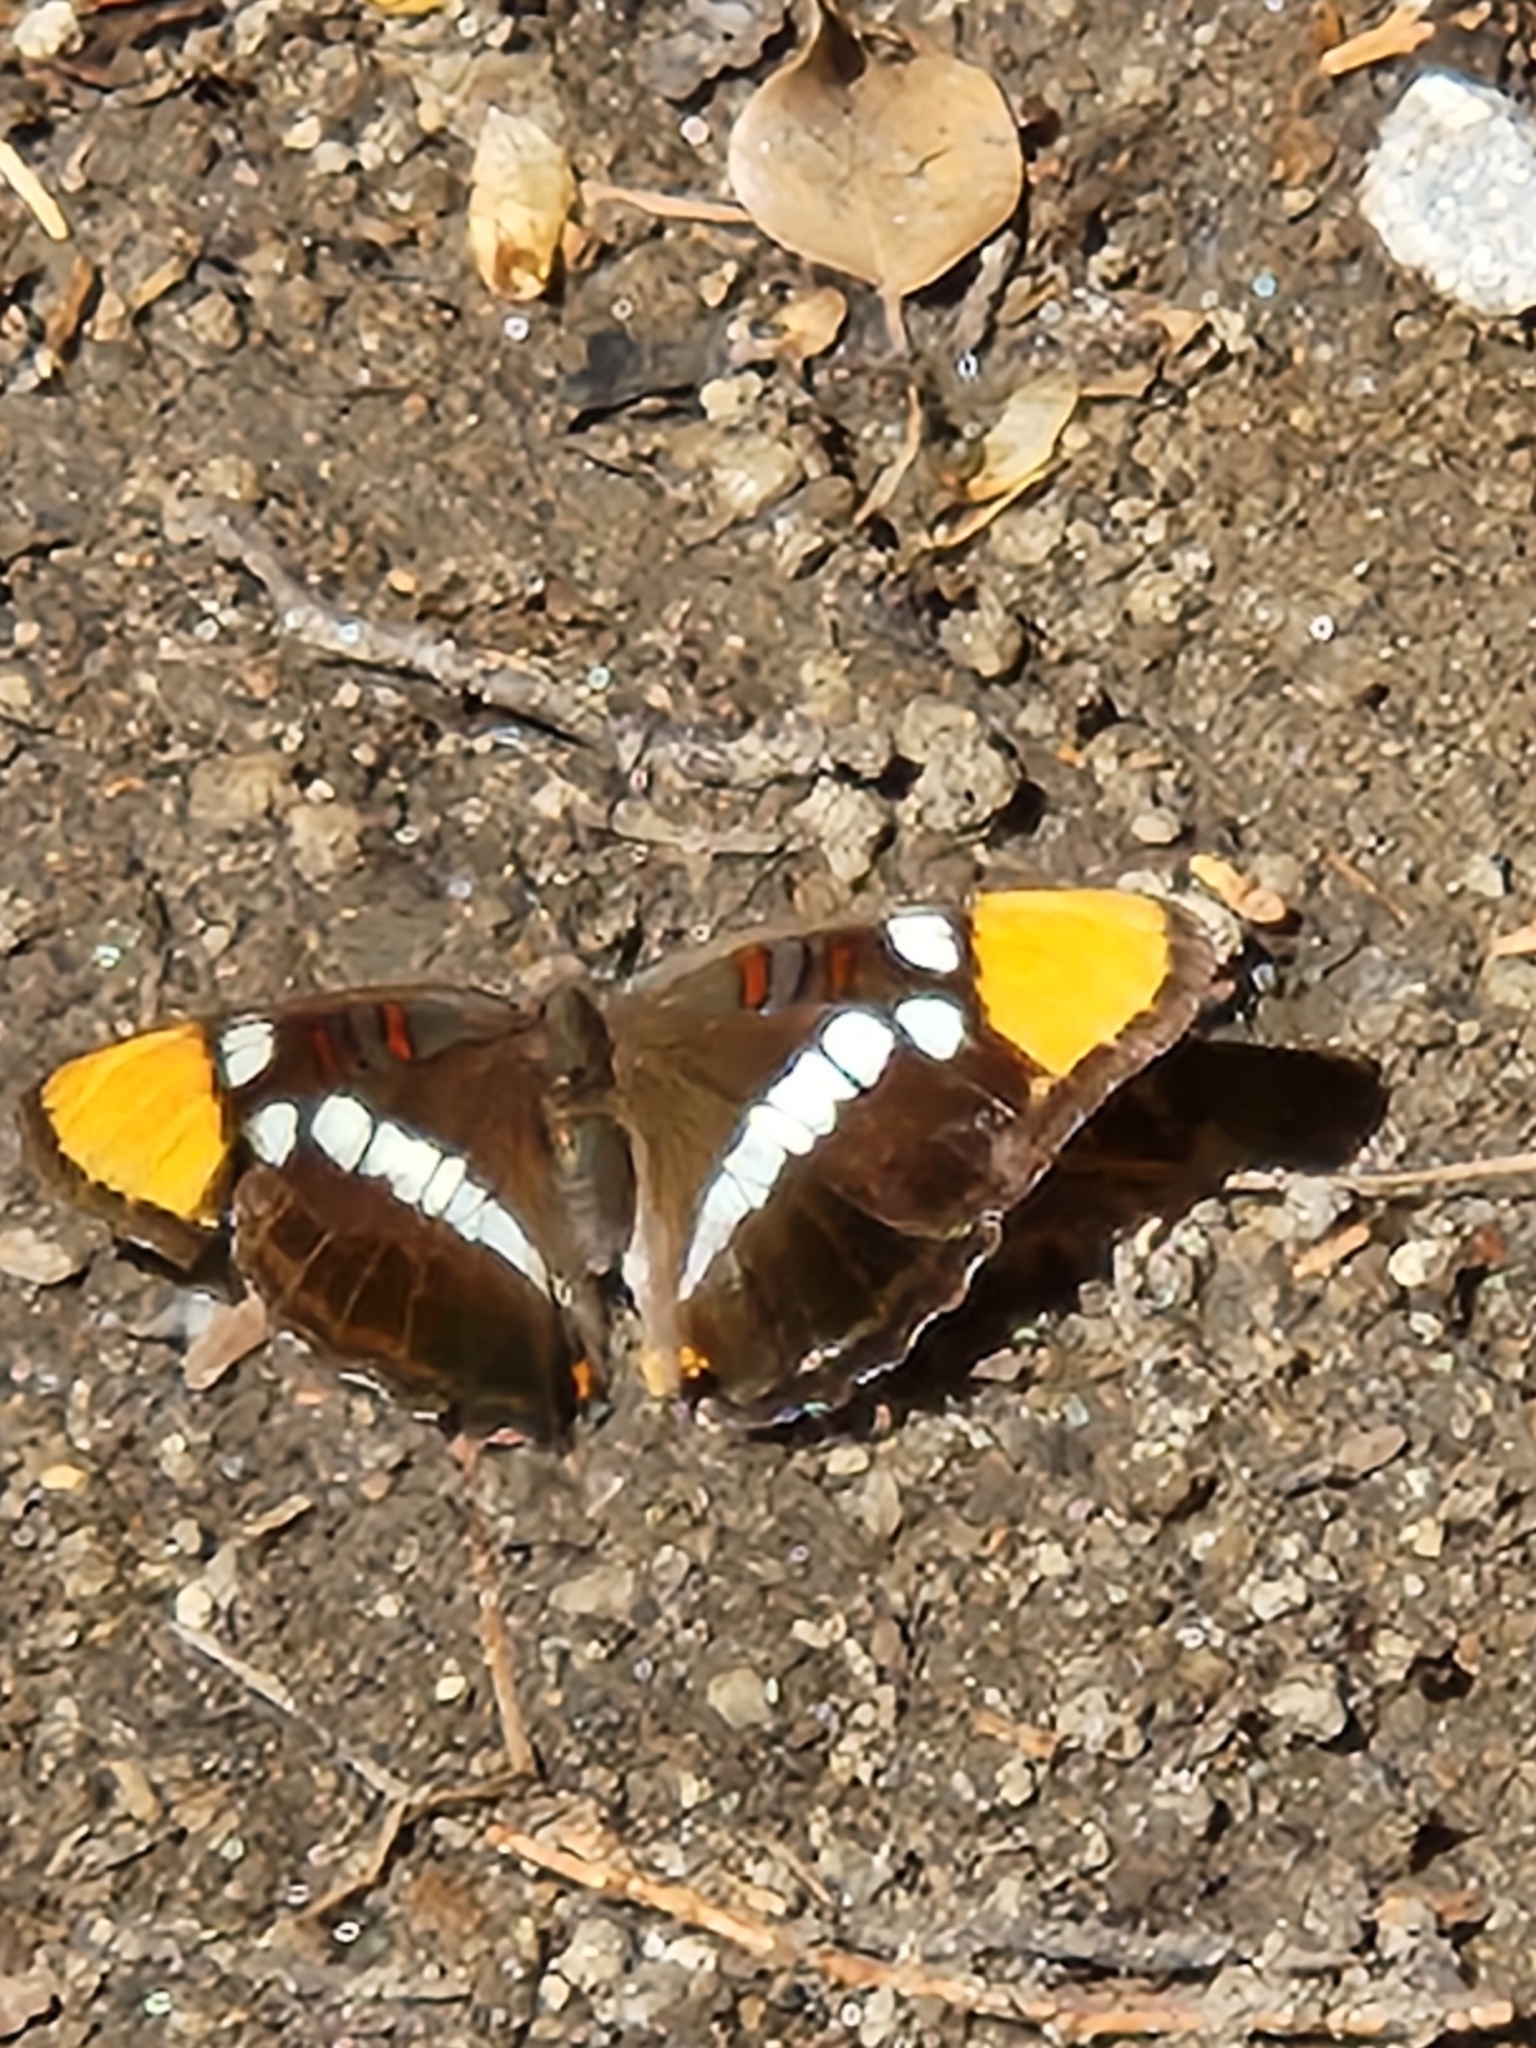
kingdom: Animalia
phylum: Arthropoda
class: Insecta
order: Lepidoptera
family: Nymphalidae
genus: Limenitis
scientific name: Limenitis bredowii
